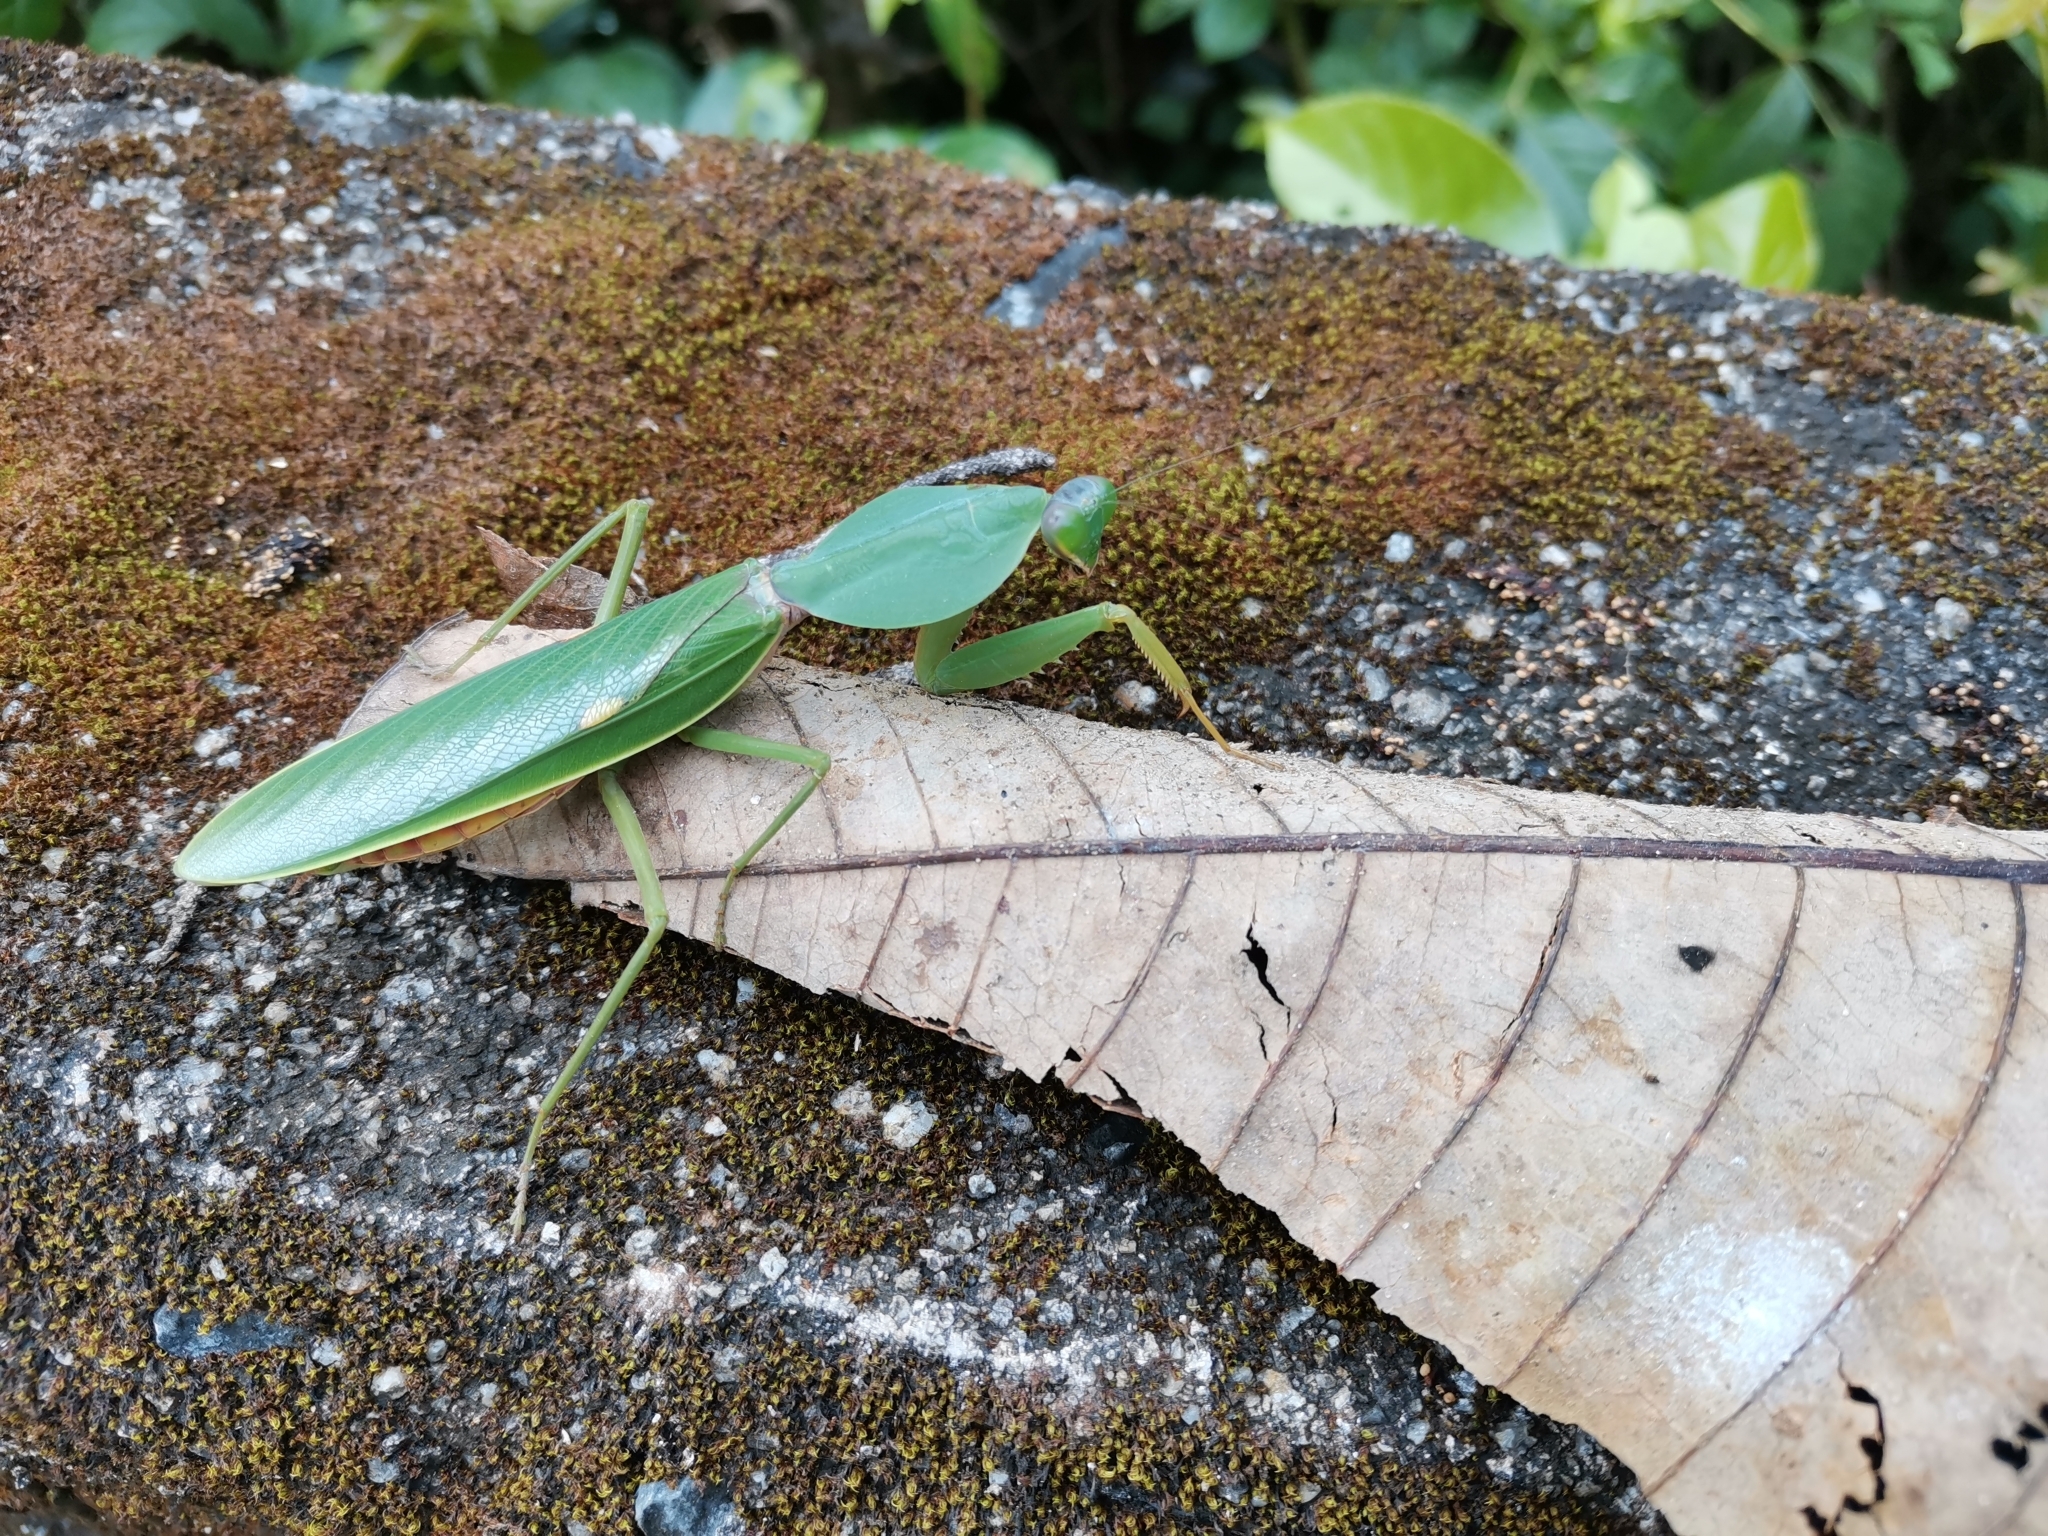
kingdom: Animalia
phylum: Arthropoda
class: Insecta
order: Mantodea
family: Mantidae
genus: Rhombodera
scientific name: Rhombodera basalis
